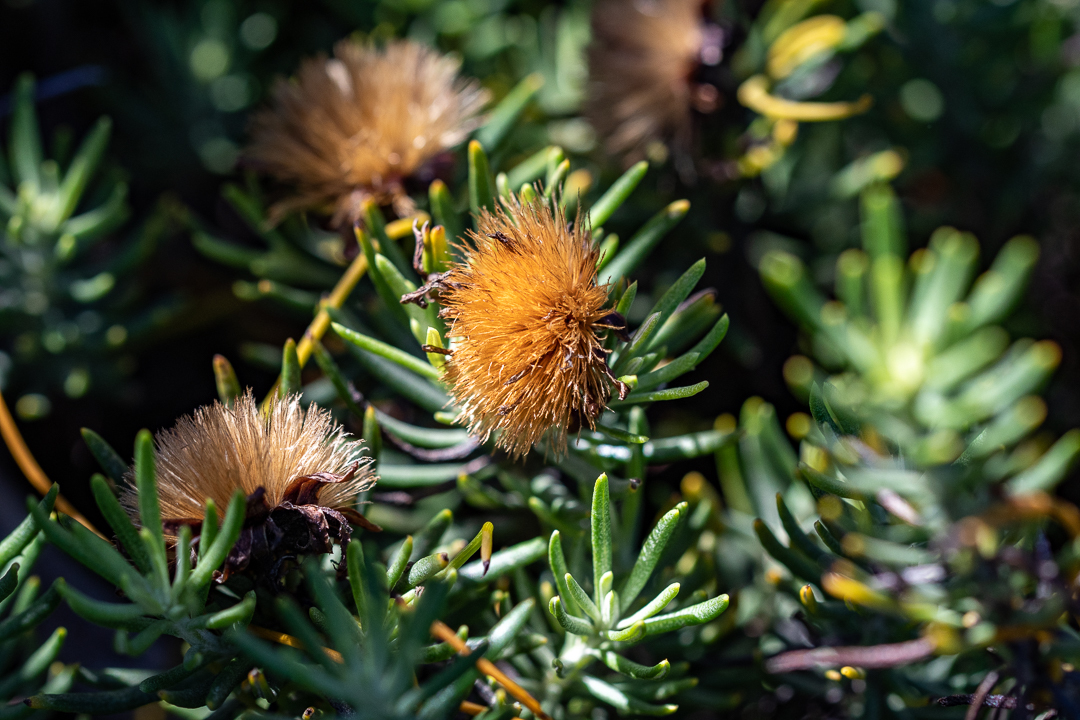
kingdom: Plantae
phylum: Tracheophyta
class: Magnoliopsida
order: Asterales
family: Asteraceae
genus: Heterolepis
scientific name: Heterolepis aliena
